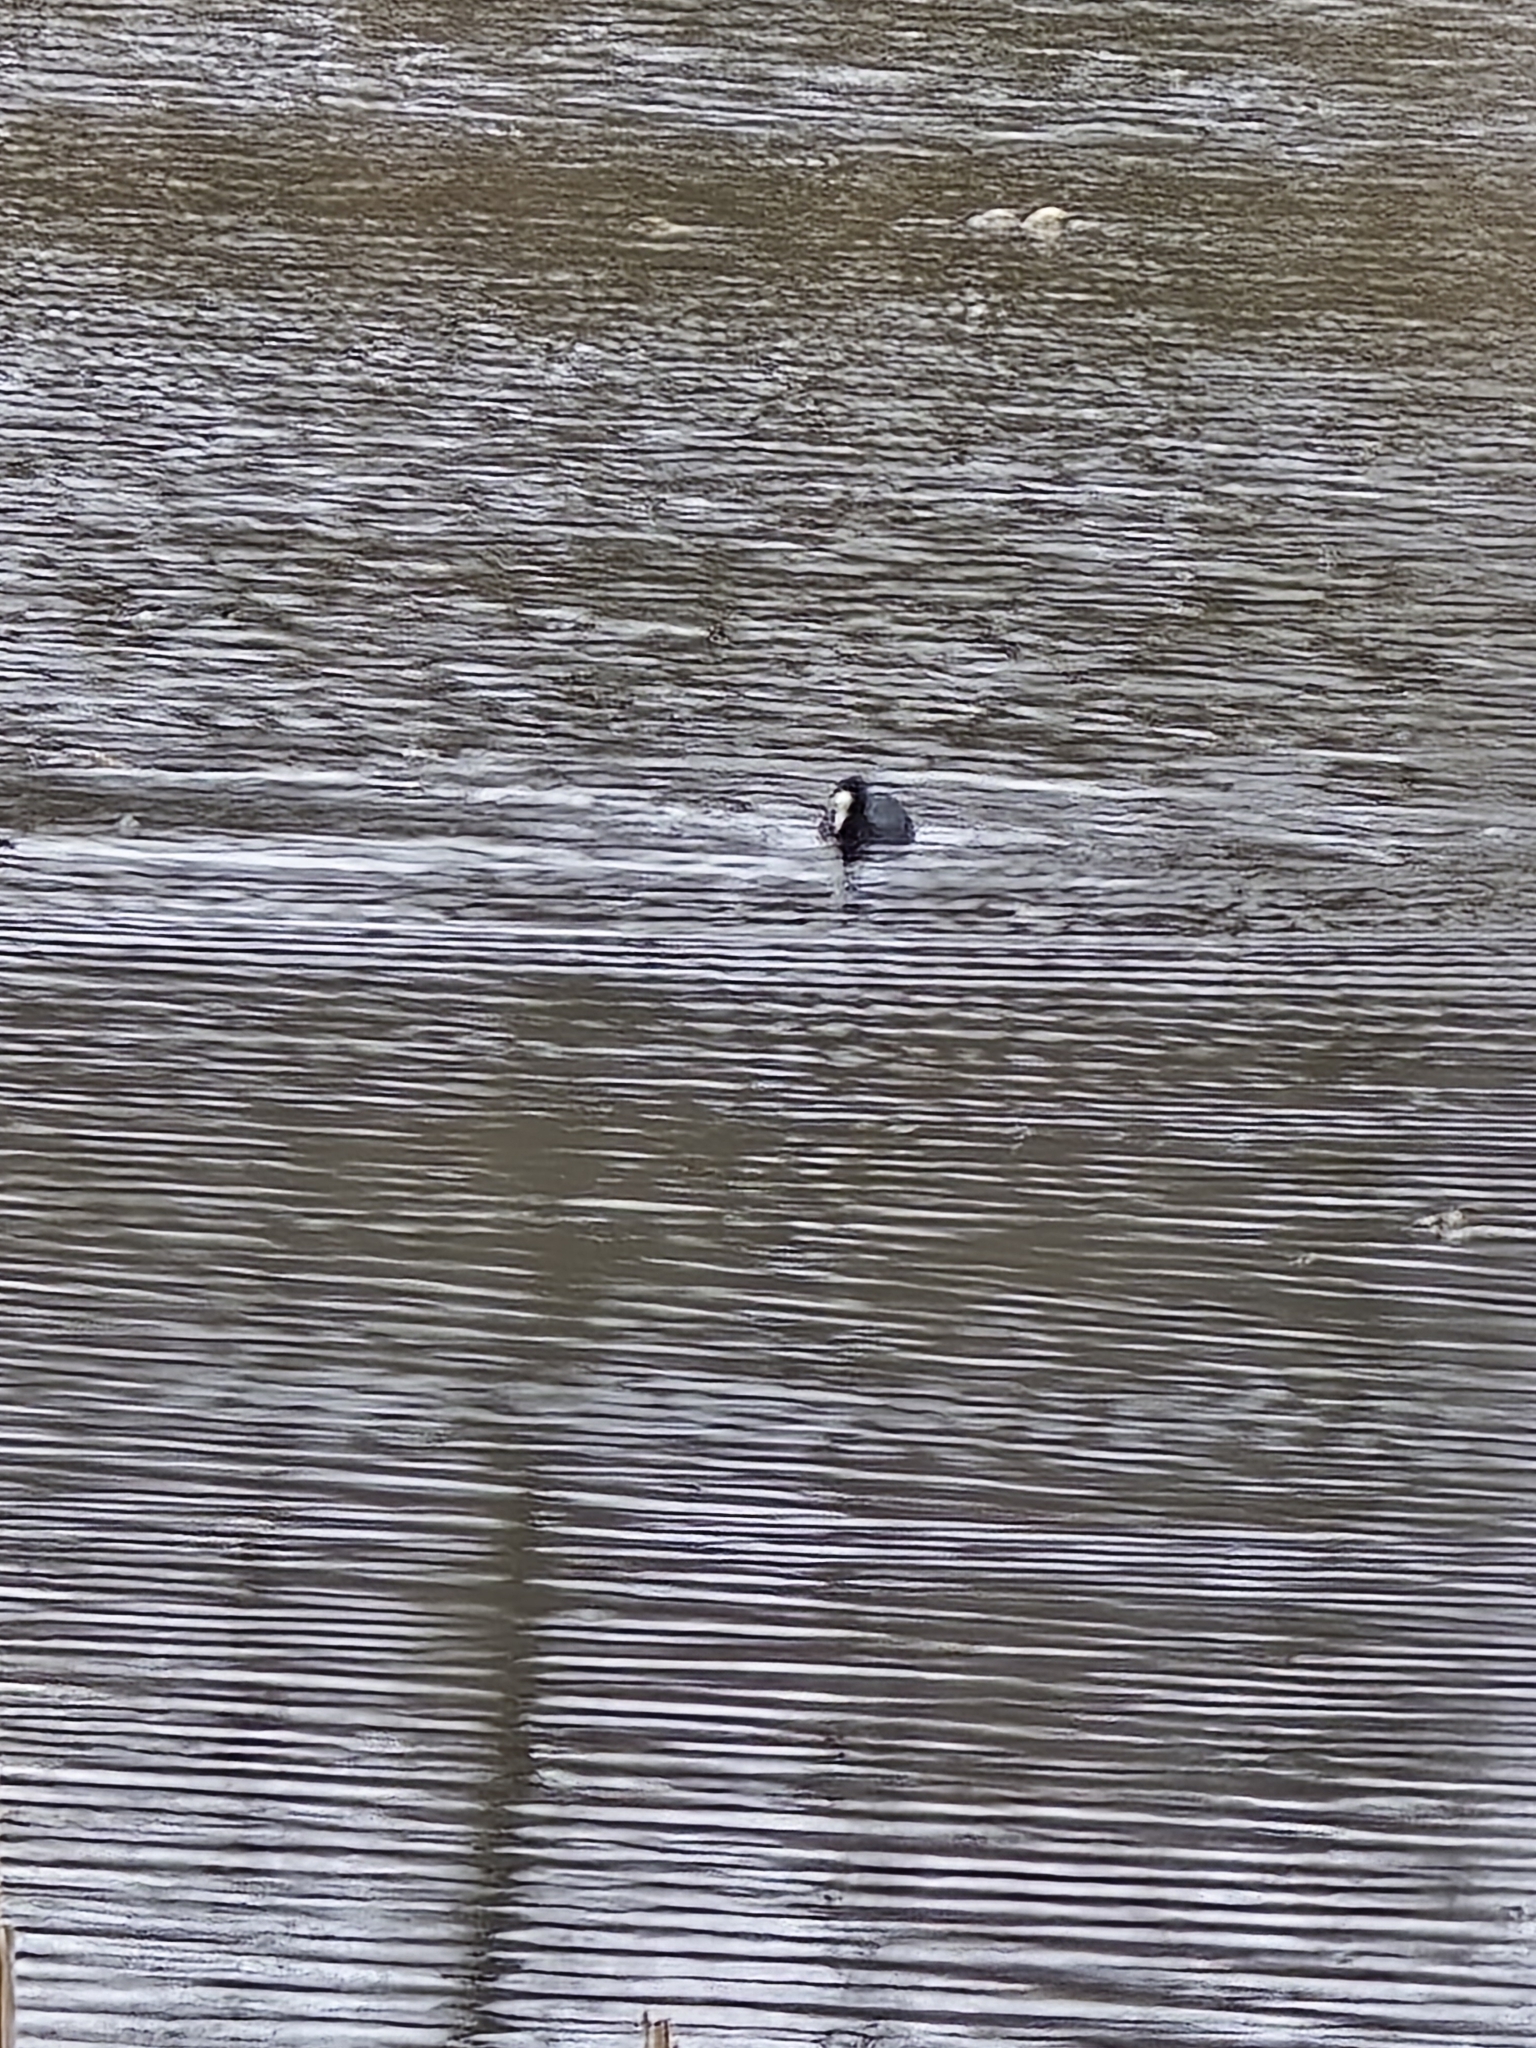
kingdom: Animalia
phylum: Chordata
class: Aves
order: Gruiformes
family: Rallidae
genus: Fulica
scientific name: Fulica atra
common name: Eurasian coot
